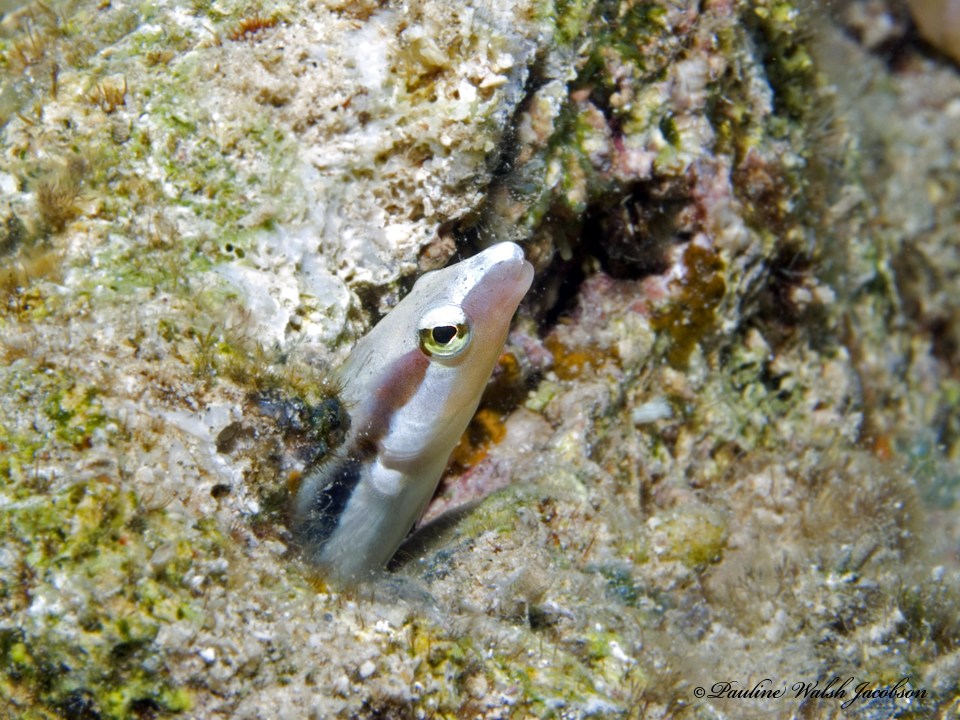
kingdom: Animalia
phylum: Chordata
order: Perciformes
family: Blenniidae
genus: Aspidontus
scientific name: Aspidontus dussumieri
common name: Lance blenny
